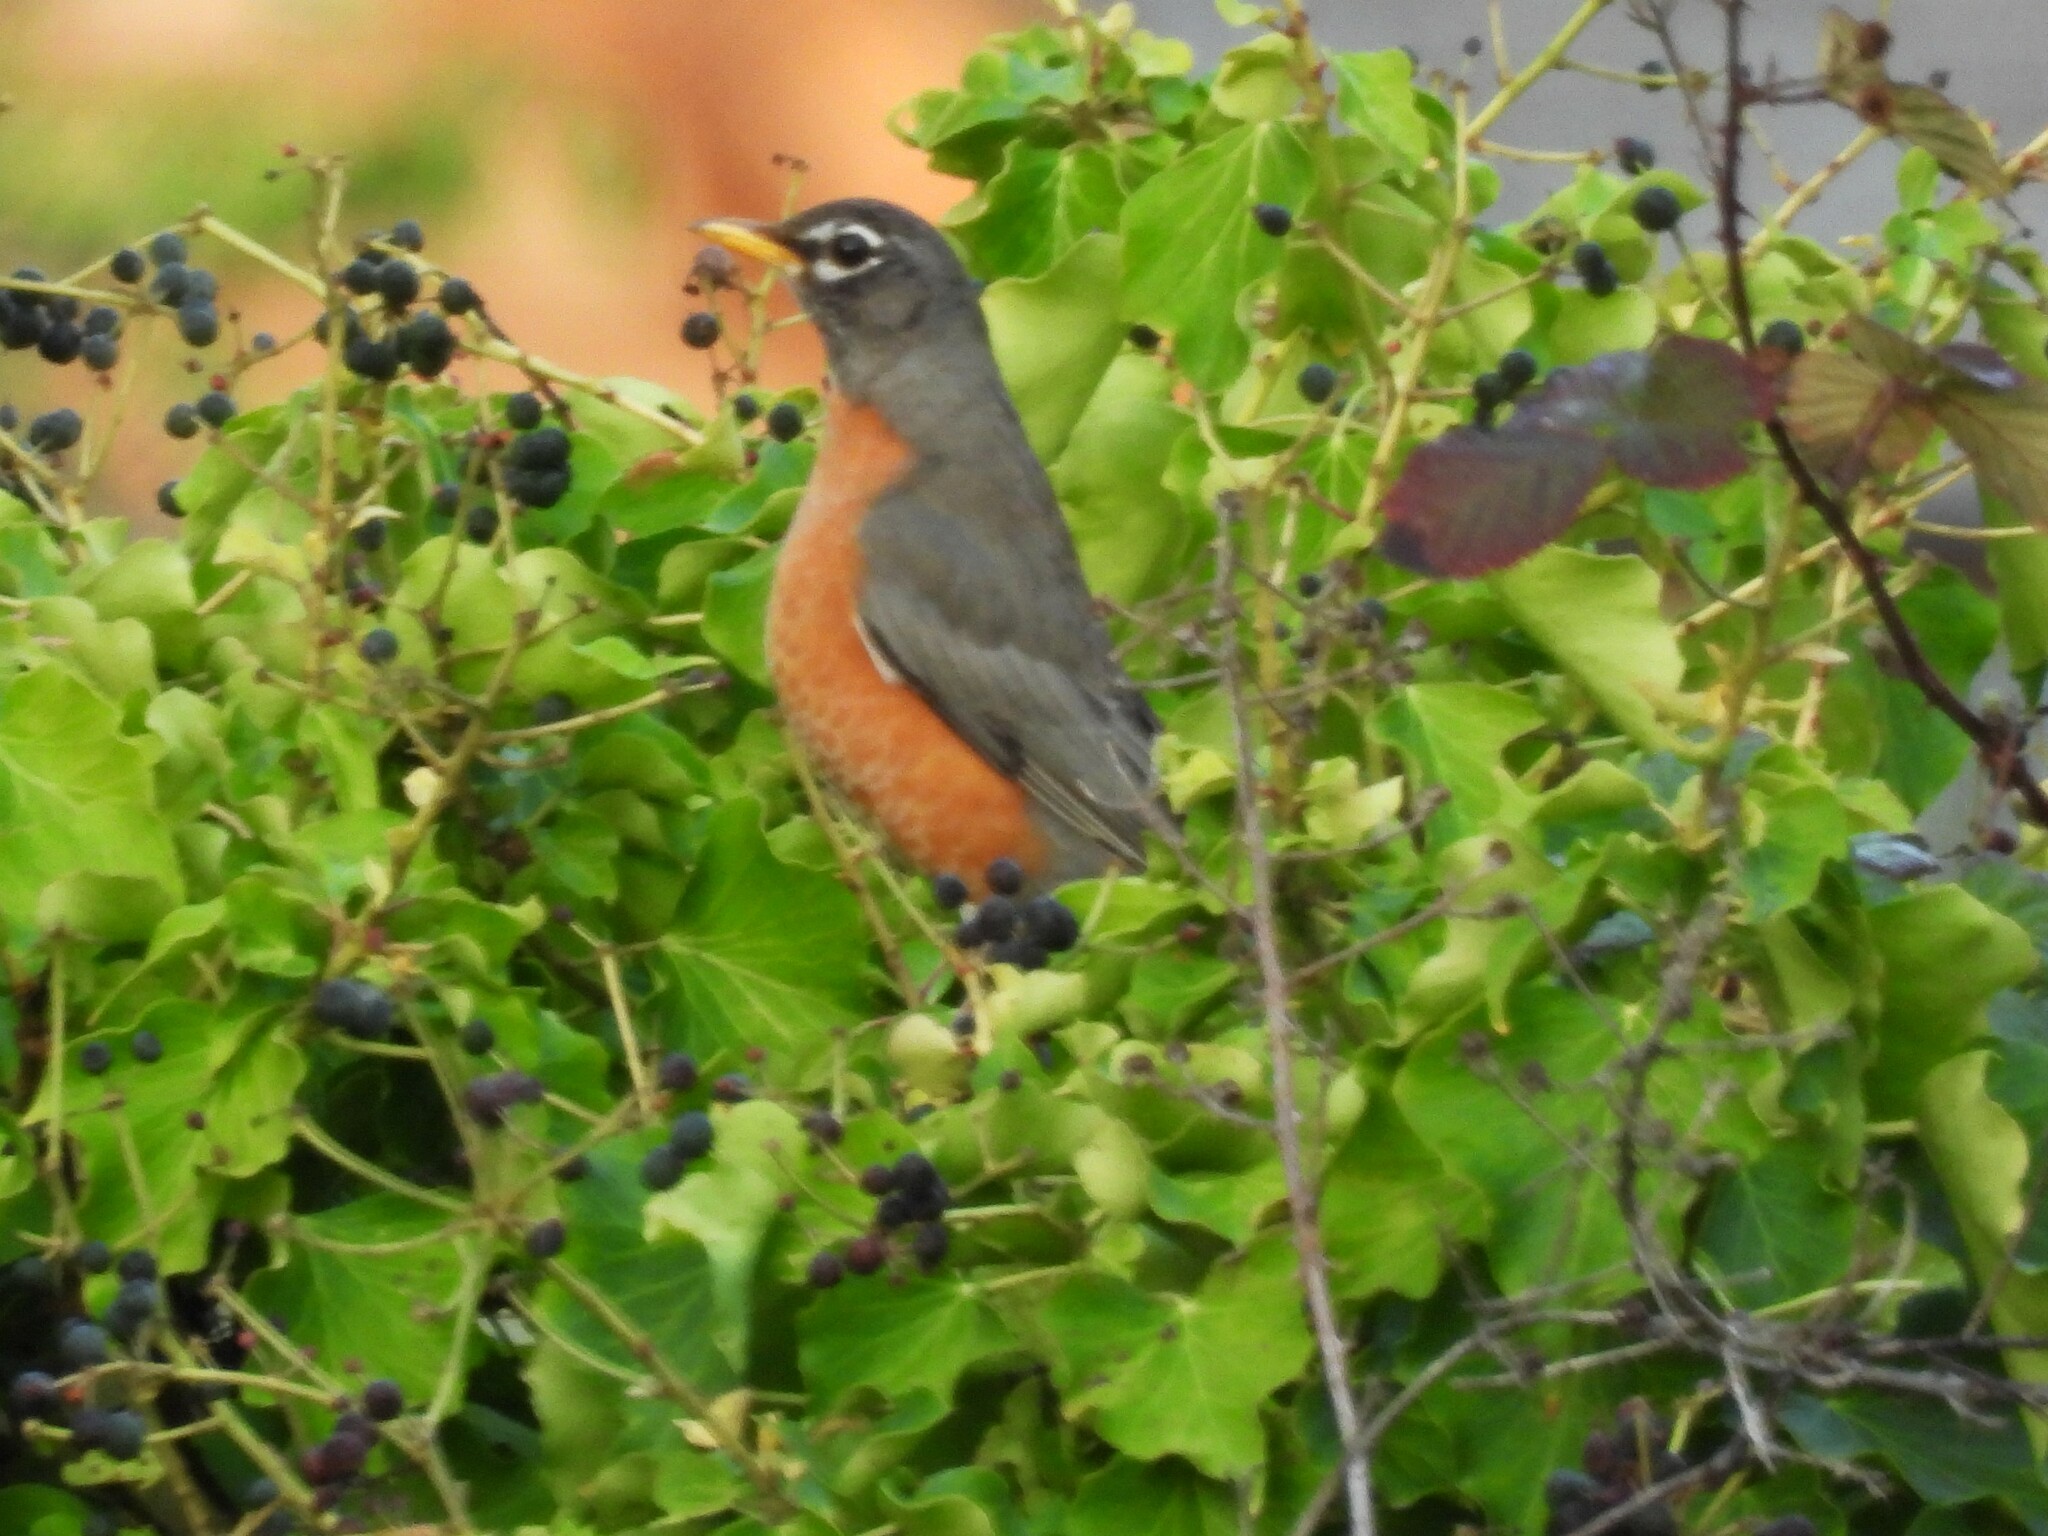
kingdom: Animalia
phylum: Chordata
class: Aves
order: Passeriformes
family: Turdidae
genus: Turdus
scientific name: Turdus migratorius
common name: American robin
